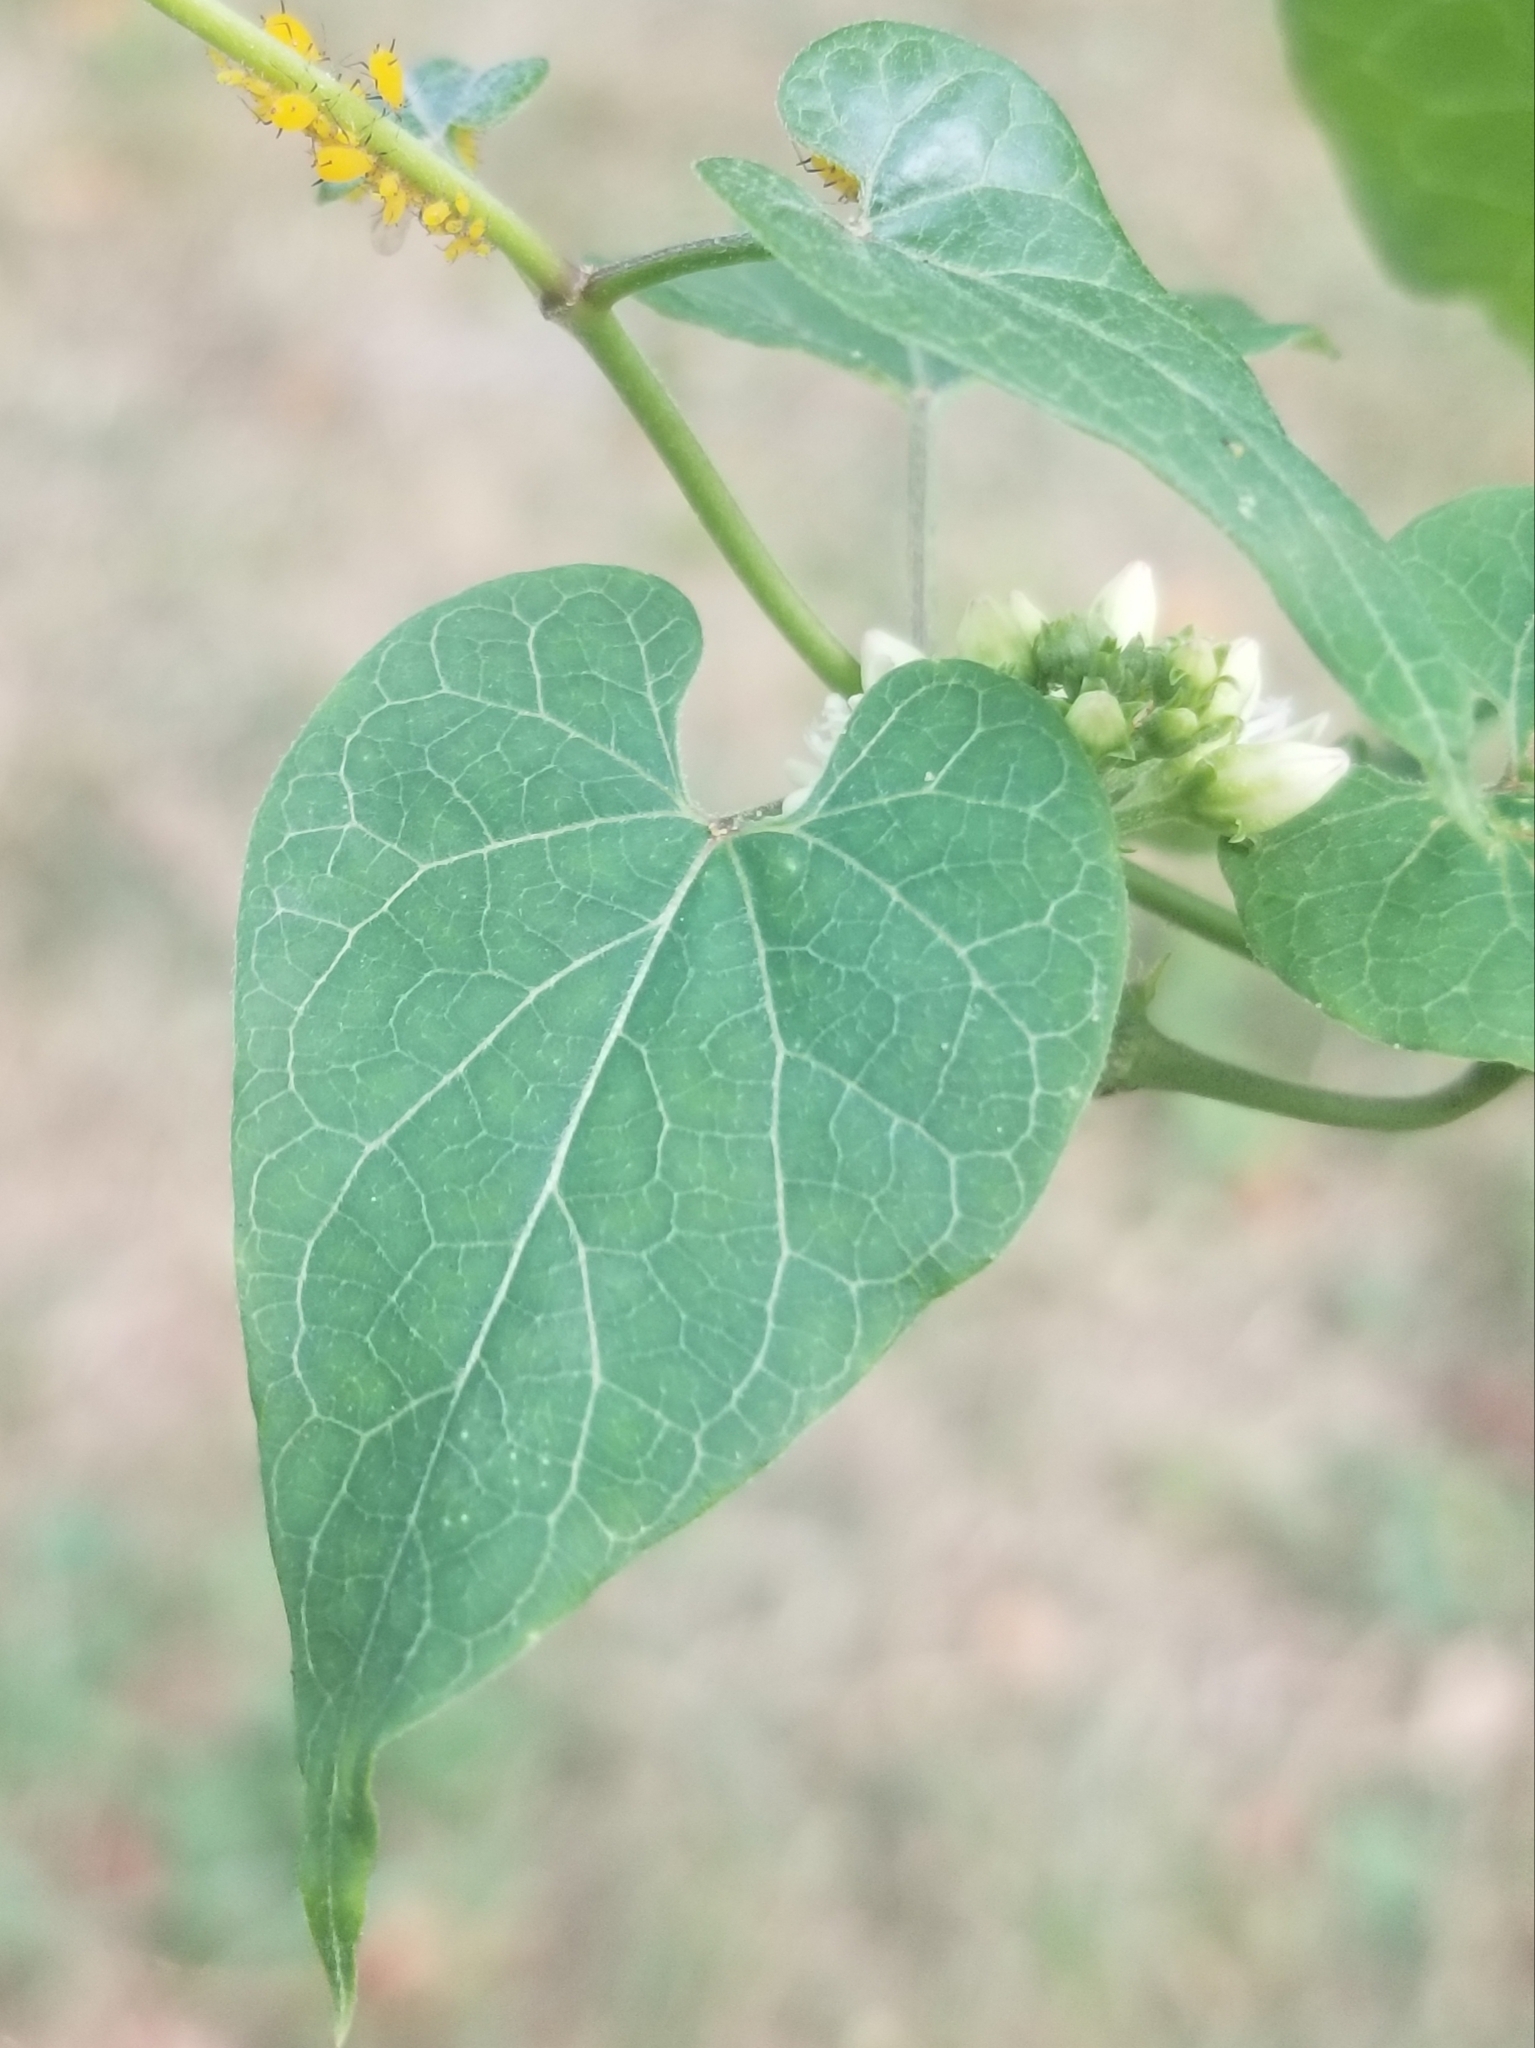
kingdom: Plantae
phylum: Tracheophyta
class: Magnoliopsida
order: Gentianales
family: Apocynaceae
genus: Cynanchum
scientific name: Cynanchum laeve
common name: Sandvine
